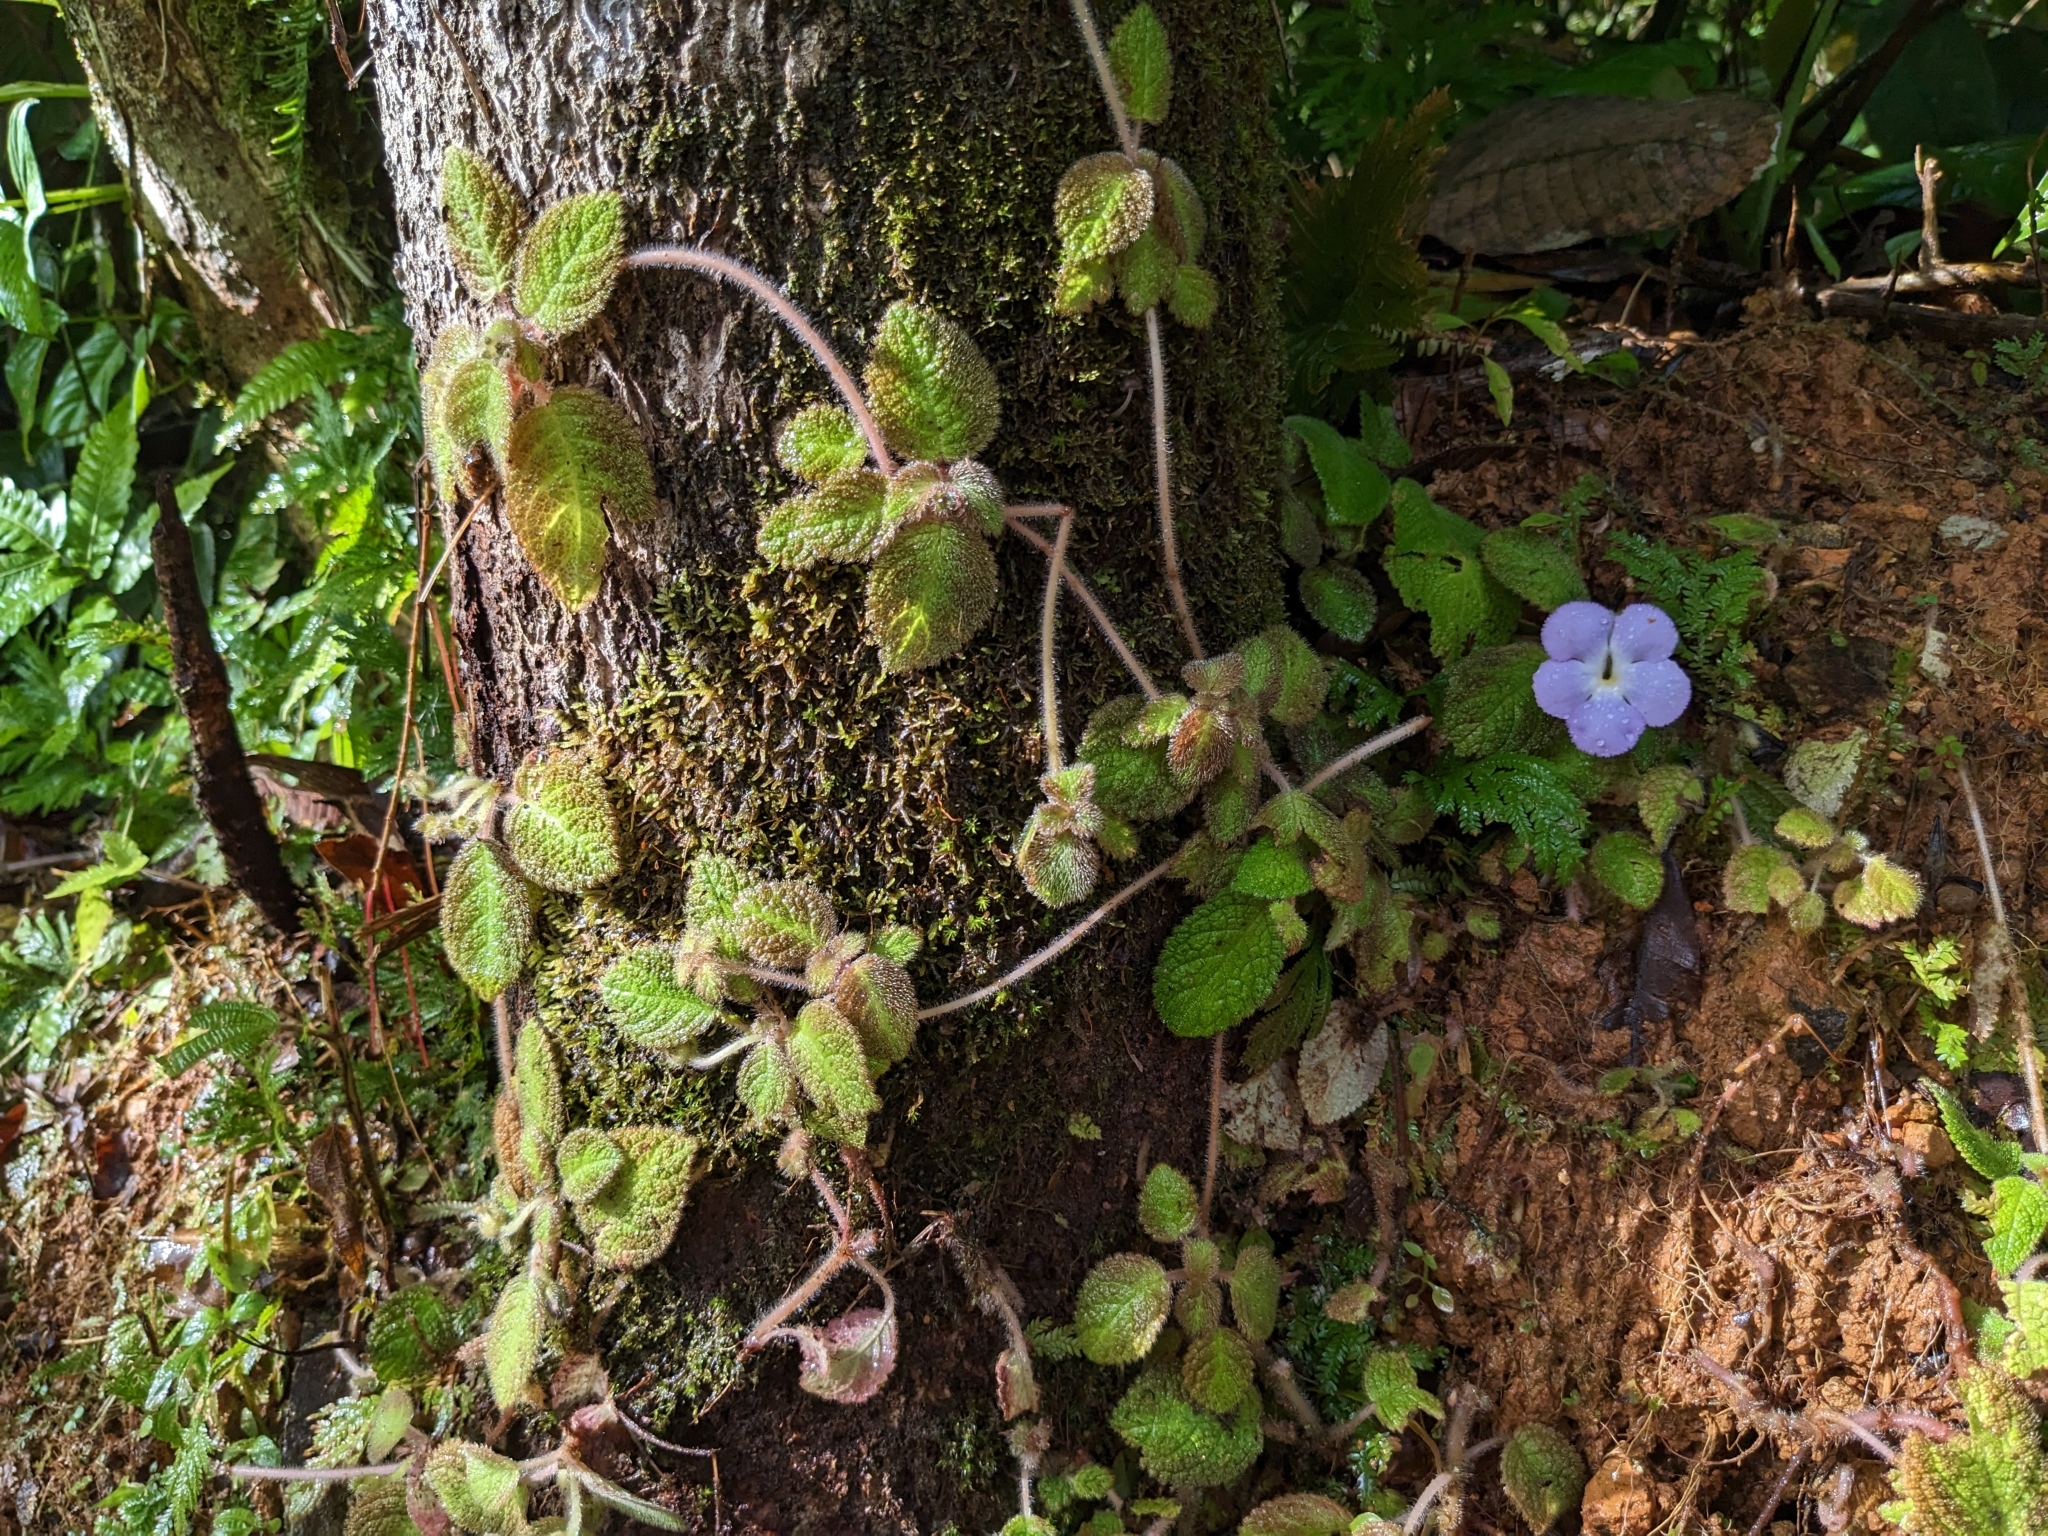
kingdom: Plantae
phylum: Tracheophyta
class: Magnoliopsida
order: Lamiales
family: Gesneriaceae
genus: Episcia
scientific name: Episcia lilacina
